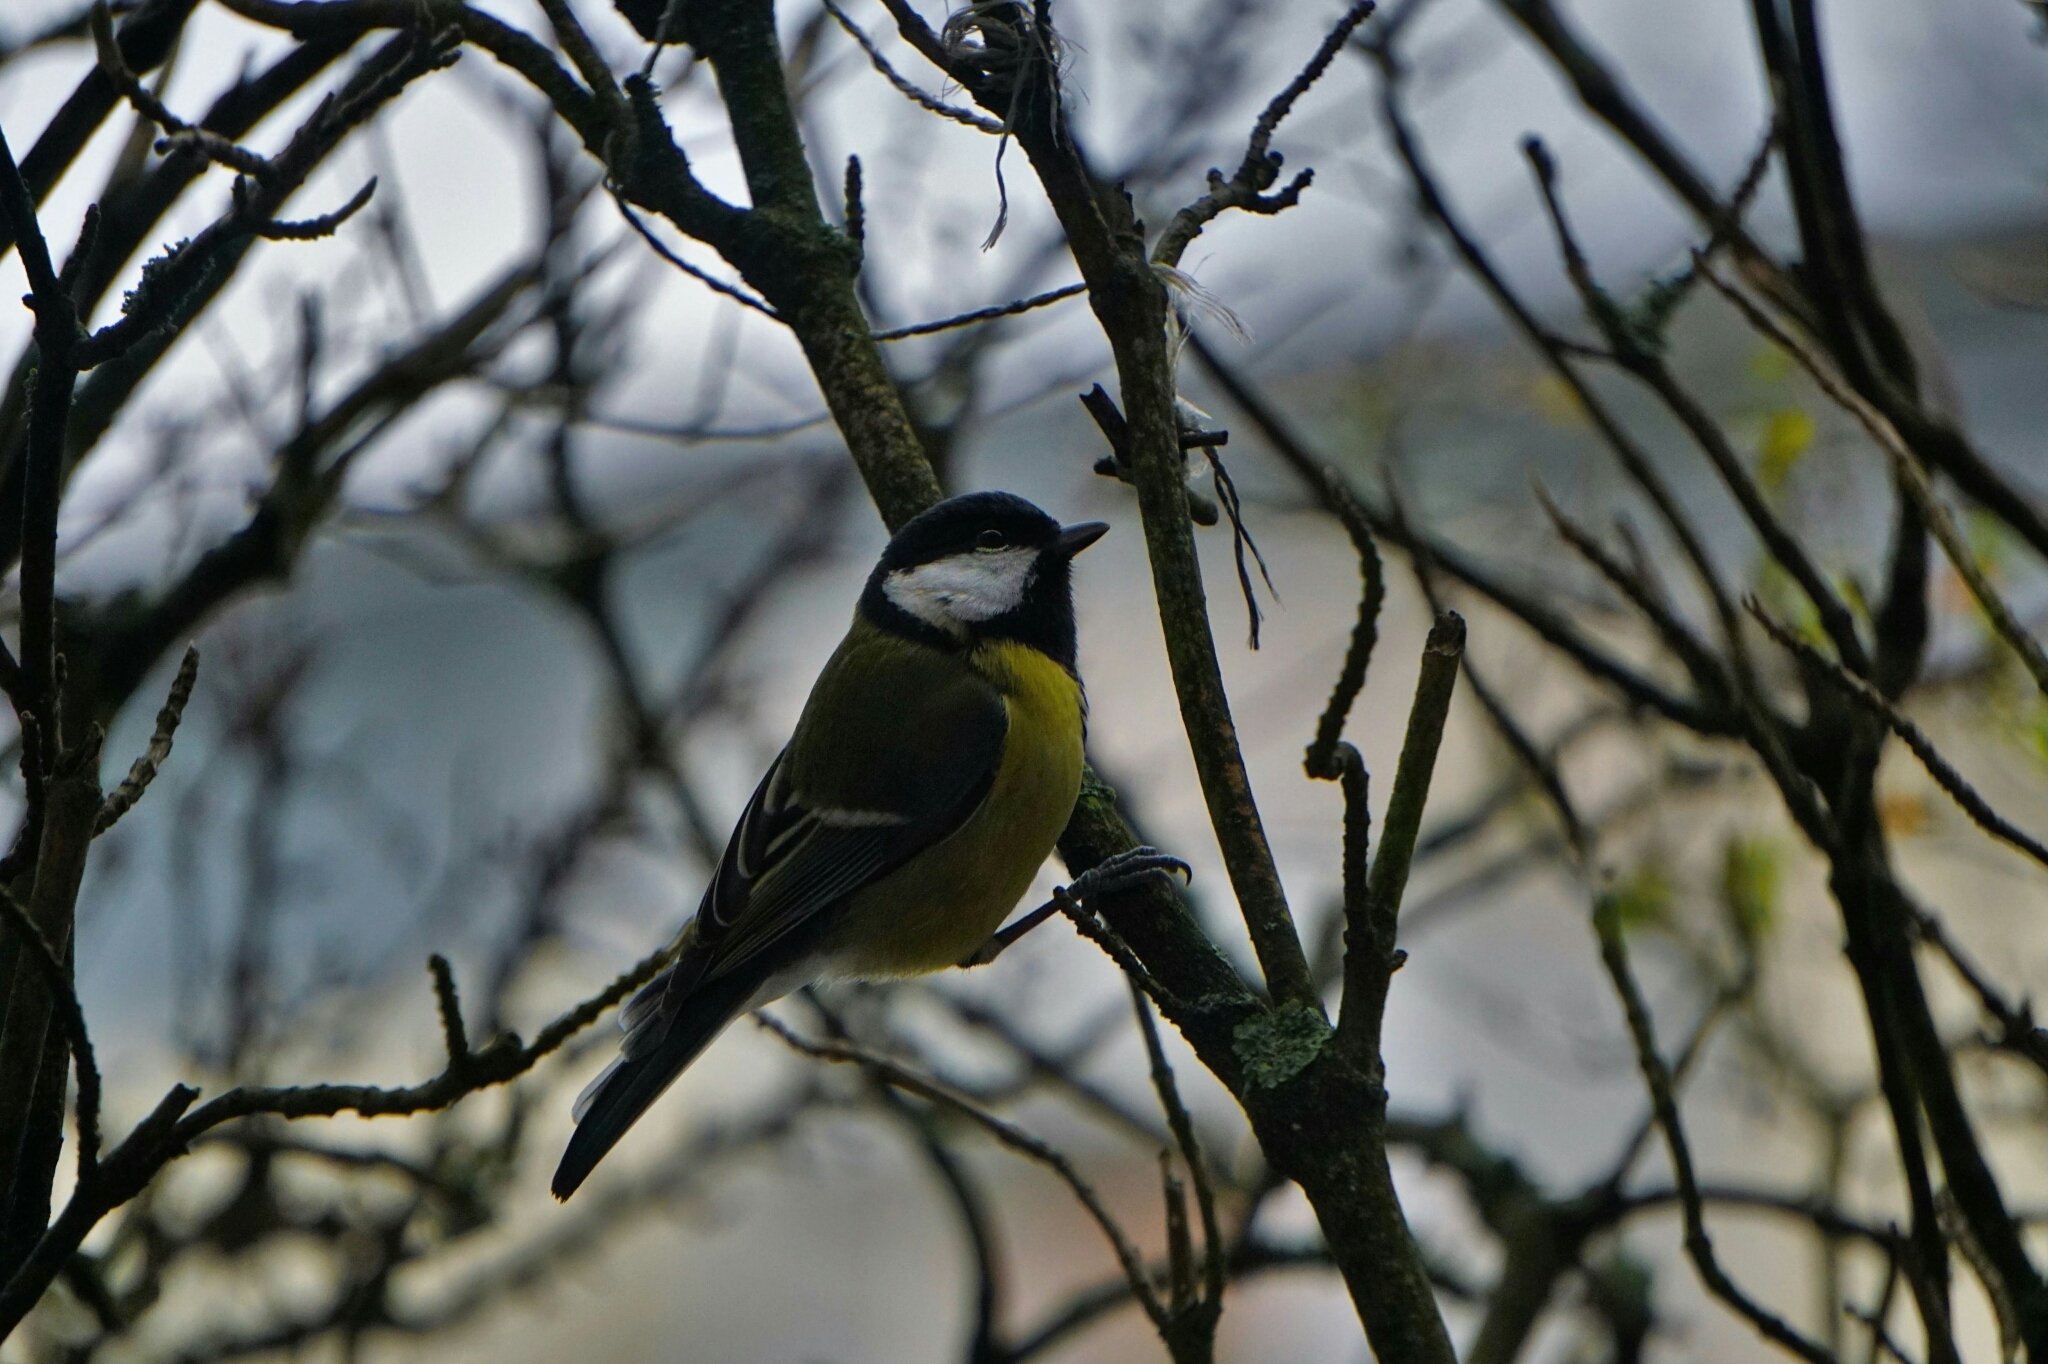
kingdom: Animalia
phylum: Chordata
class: Aves
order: Passeriformes
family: Paridae
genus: Parus
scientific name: Parus major
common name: Great tit
